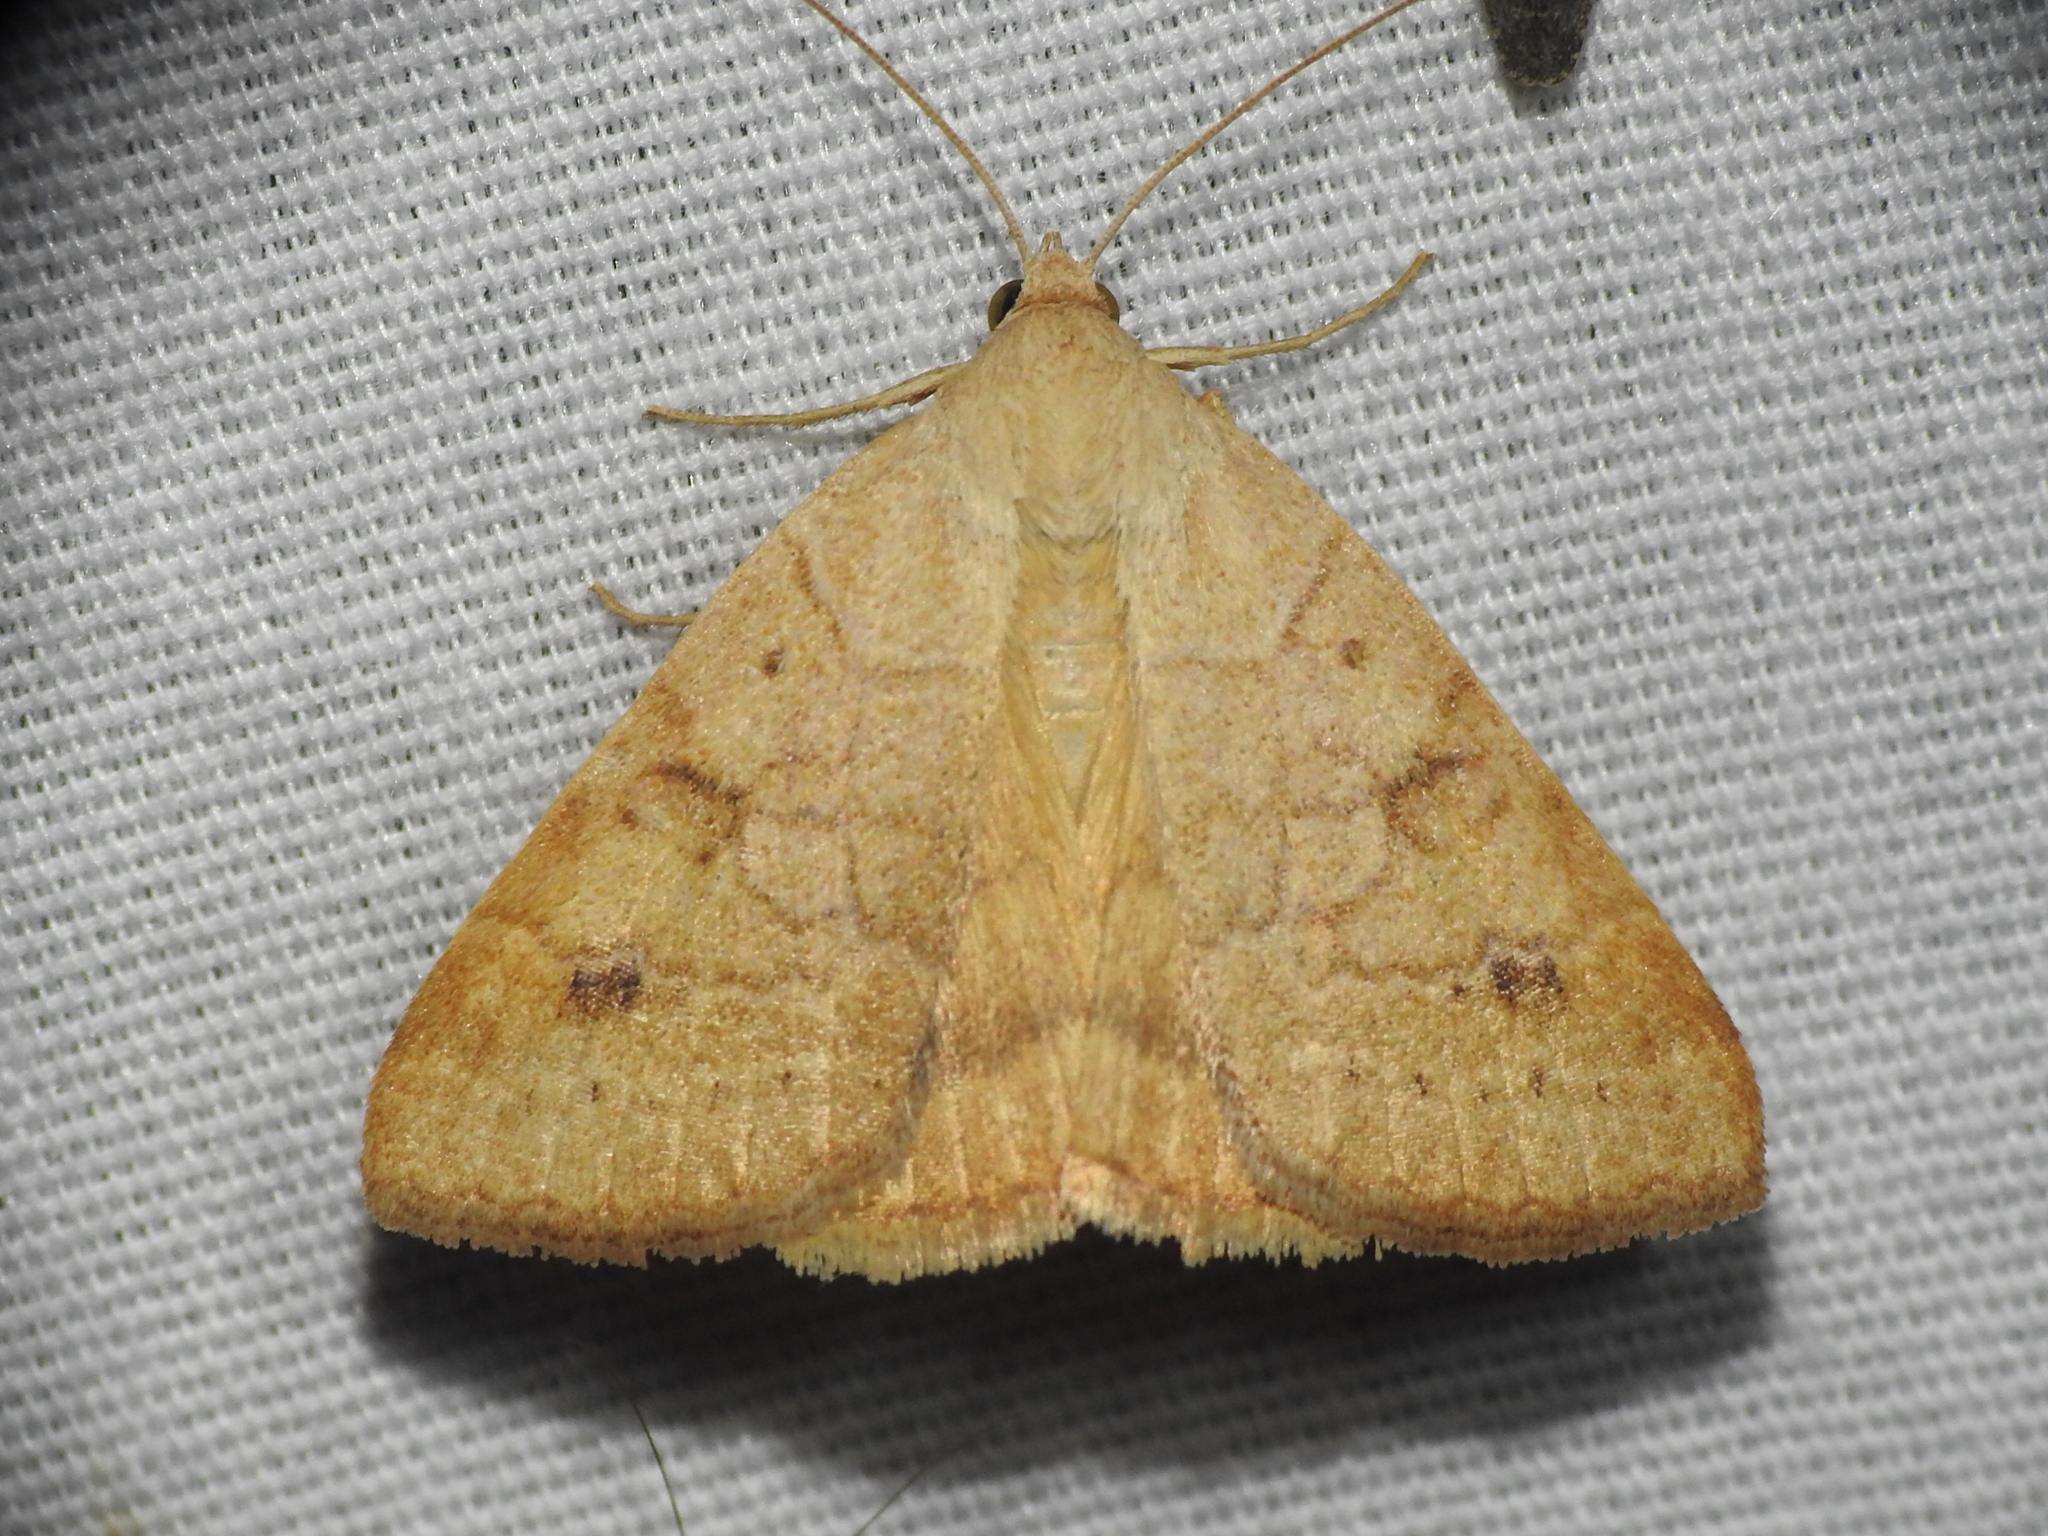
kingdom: Animalia
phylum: Arthropoda
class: Insecta
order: Lepidoptera
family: Erebidae
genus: Caenurgia
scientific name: Caenurgia chloropha
